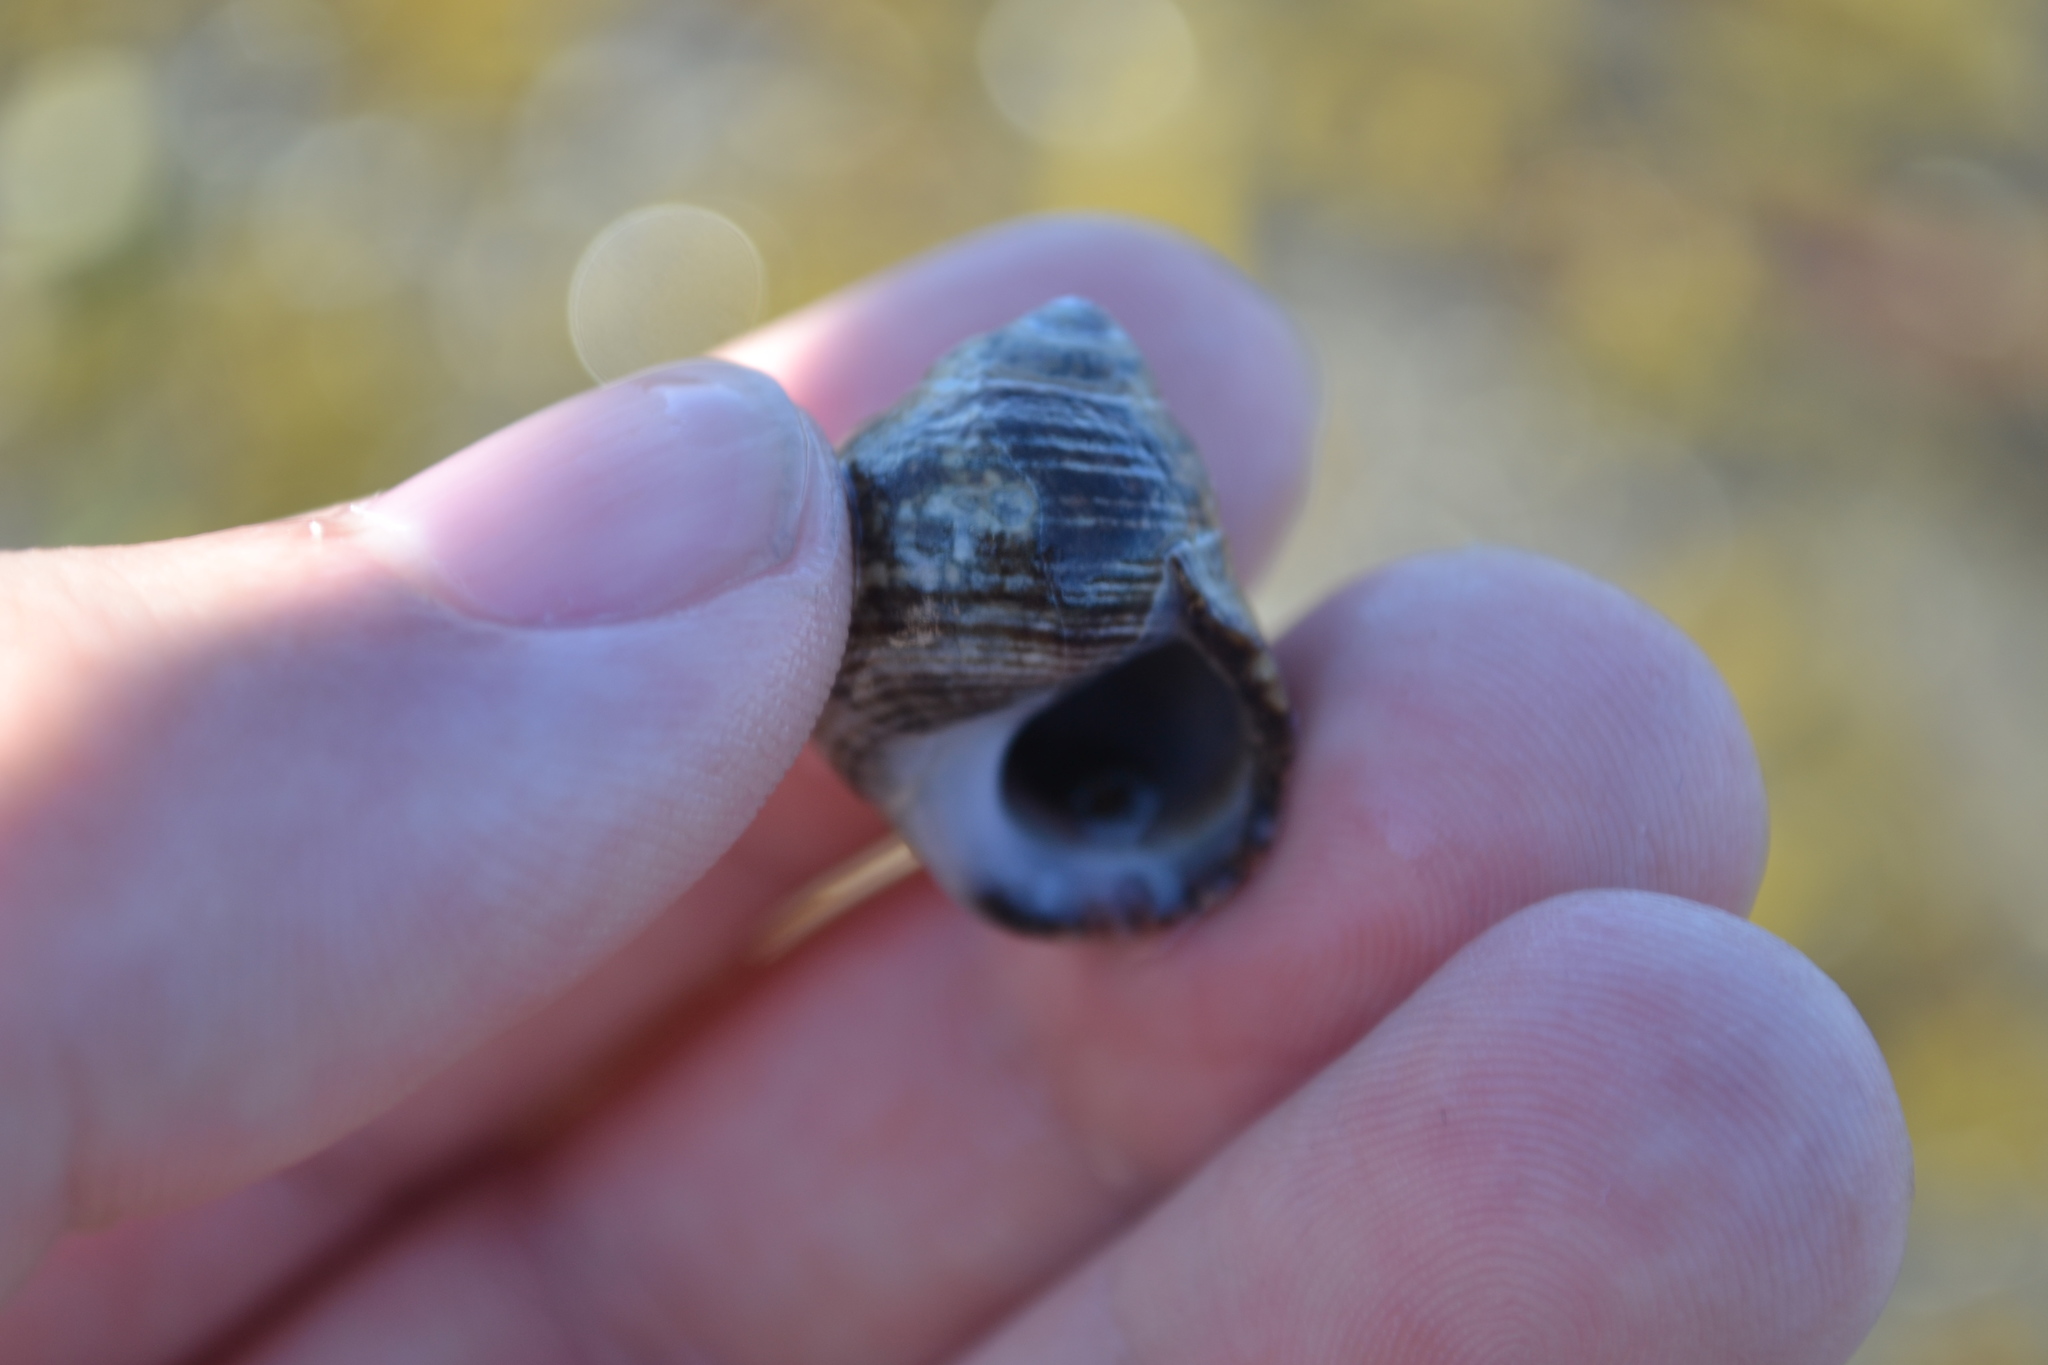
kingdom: Animalia
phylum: Mollusca
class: Gastropoda
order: Littorinimorpha
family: Littorinidae
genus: Littorina
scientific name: Littorina littorea
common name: Common periwinkle
